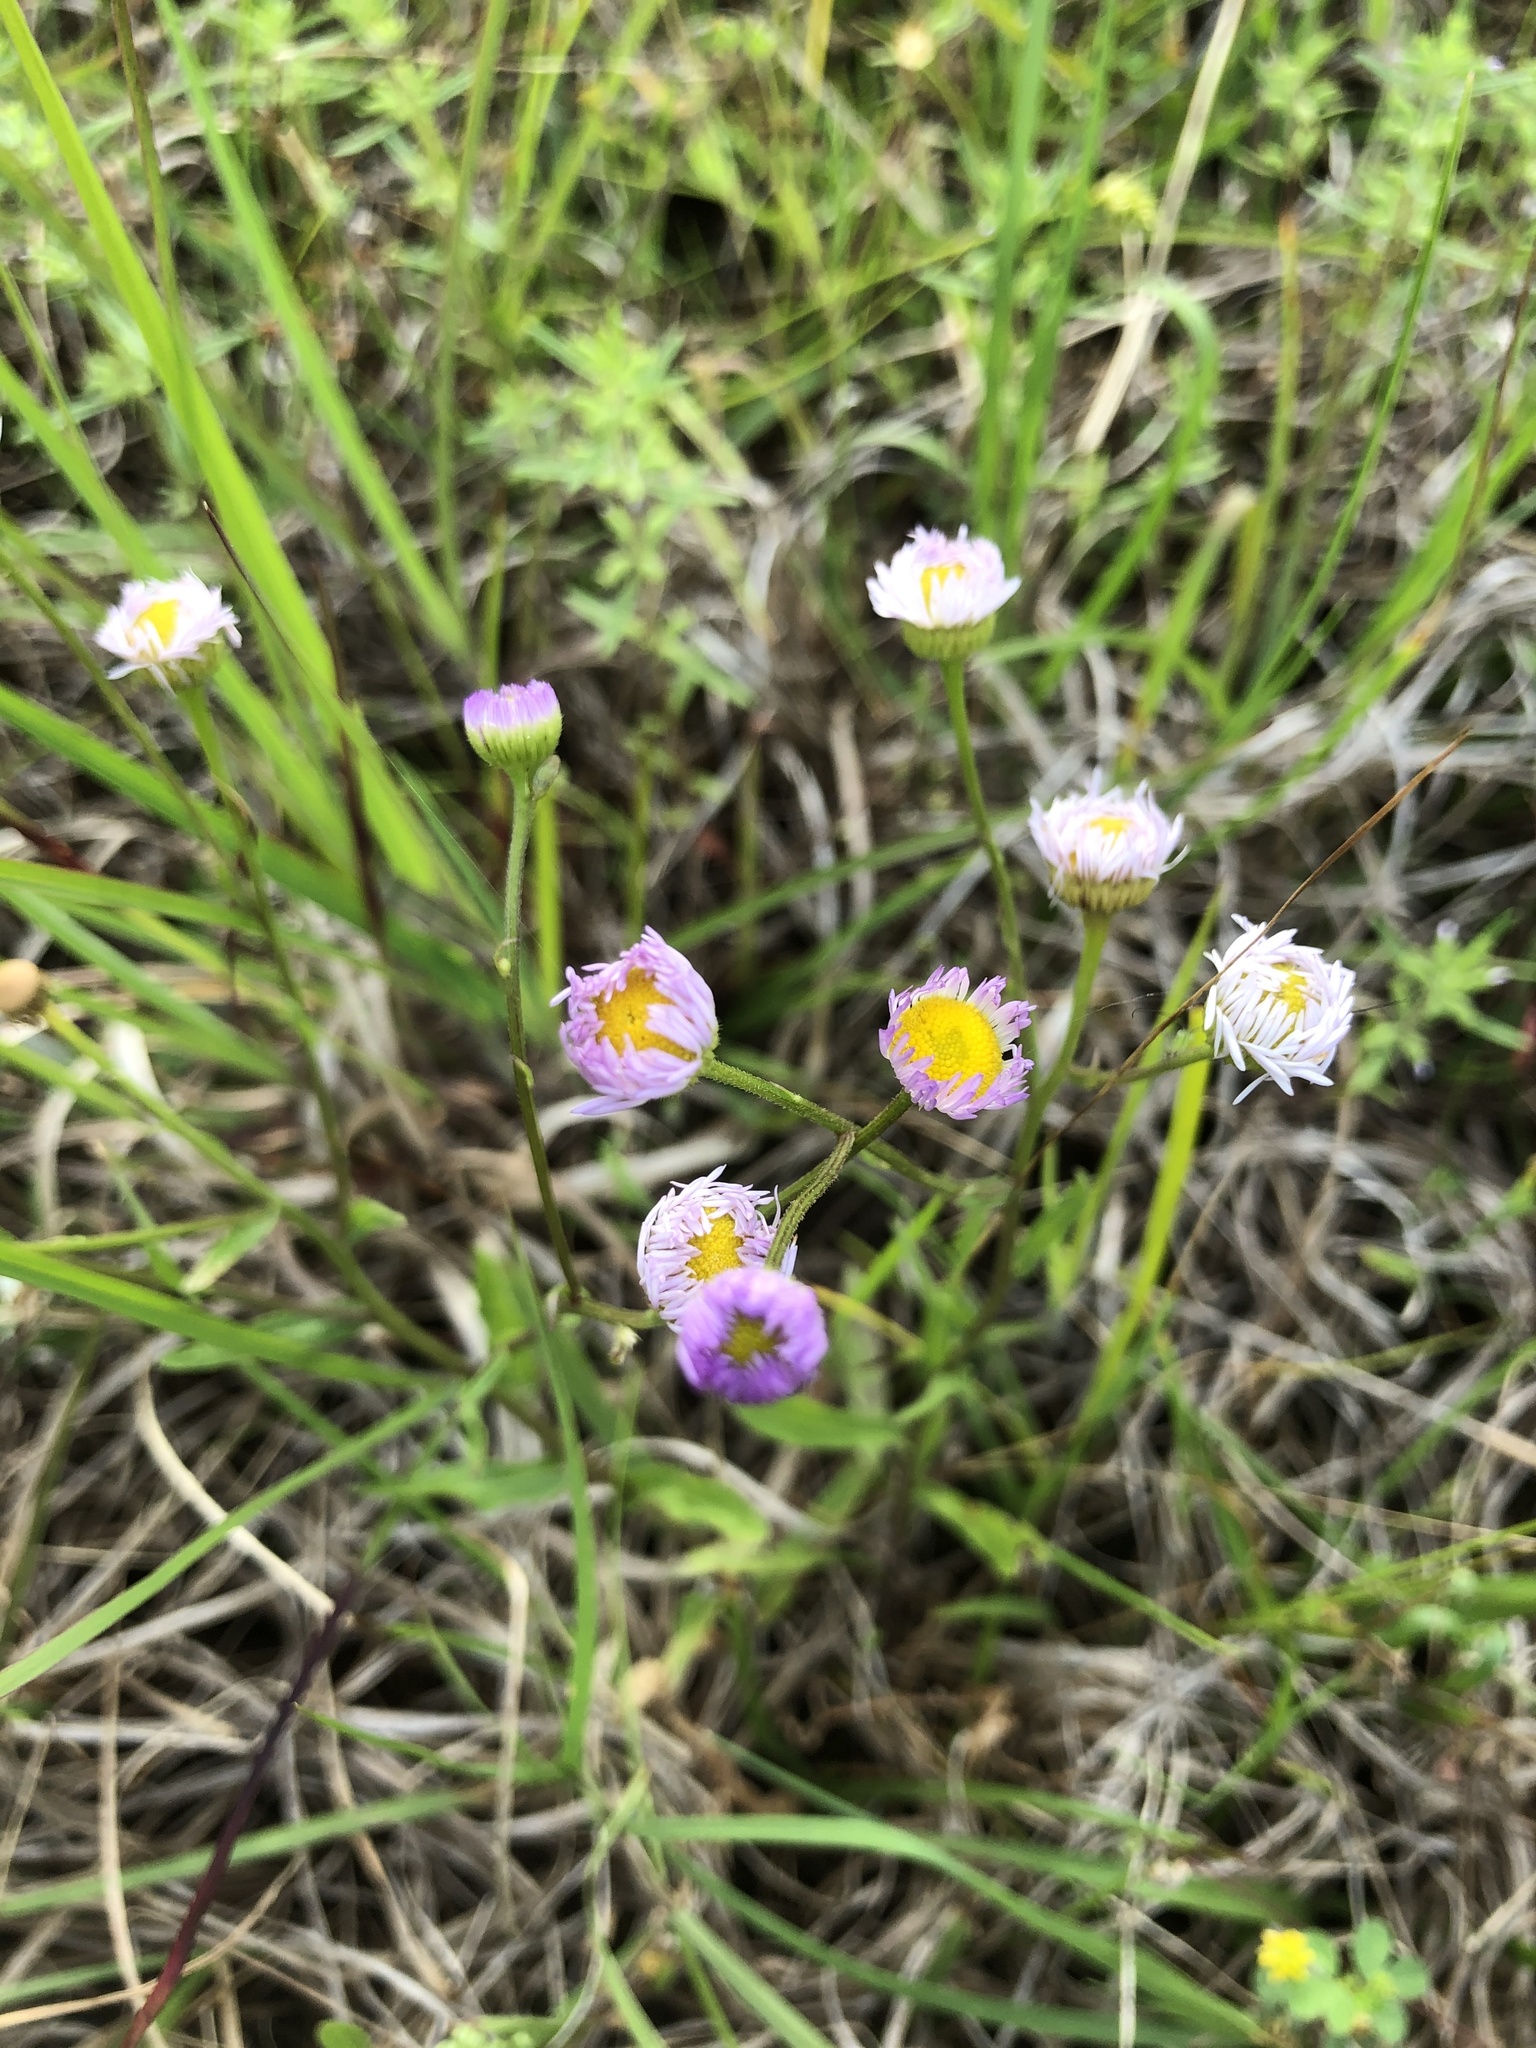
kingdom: Plantae
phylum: Tracheophyta
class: Magnoliopsida
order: Asterales
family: Asteraceae
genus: Erigeron
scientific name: Erigeron tenuis
